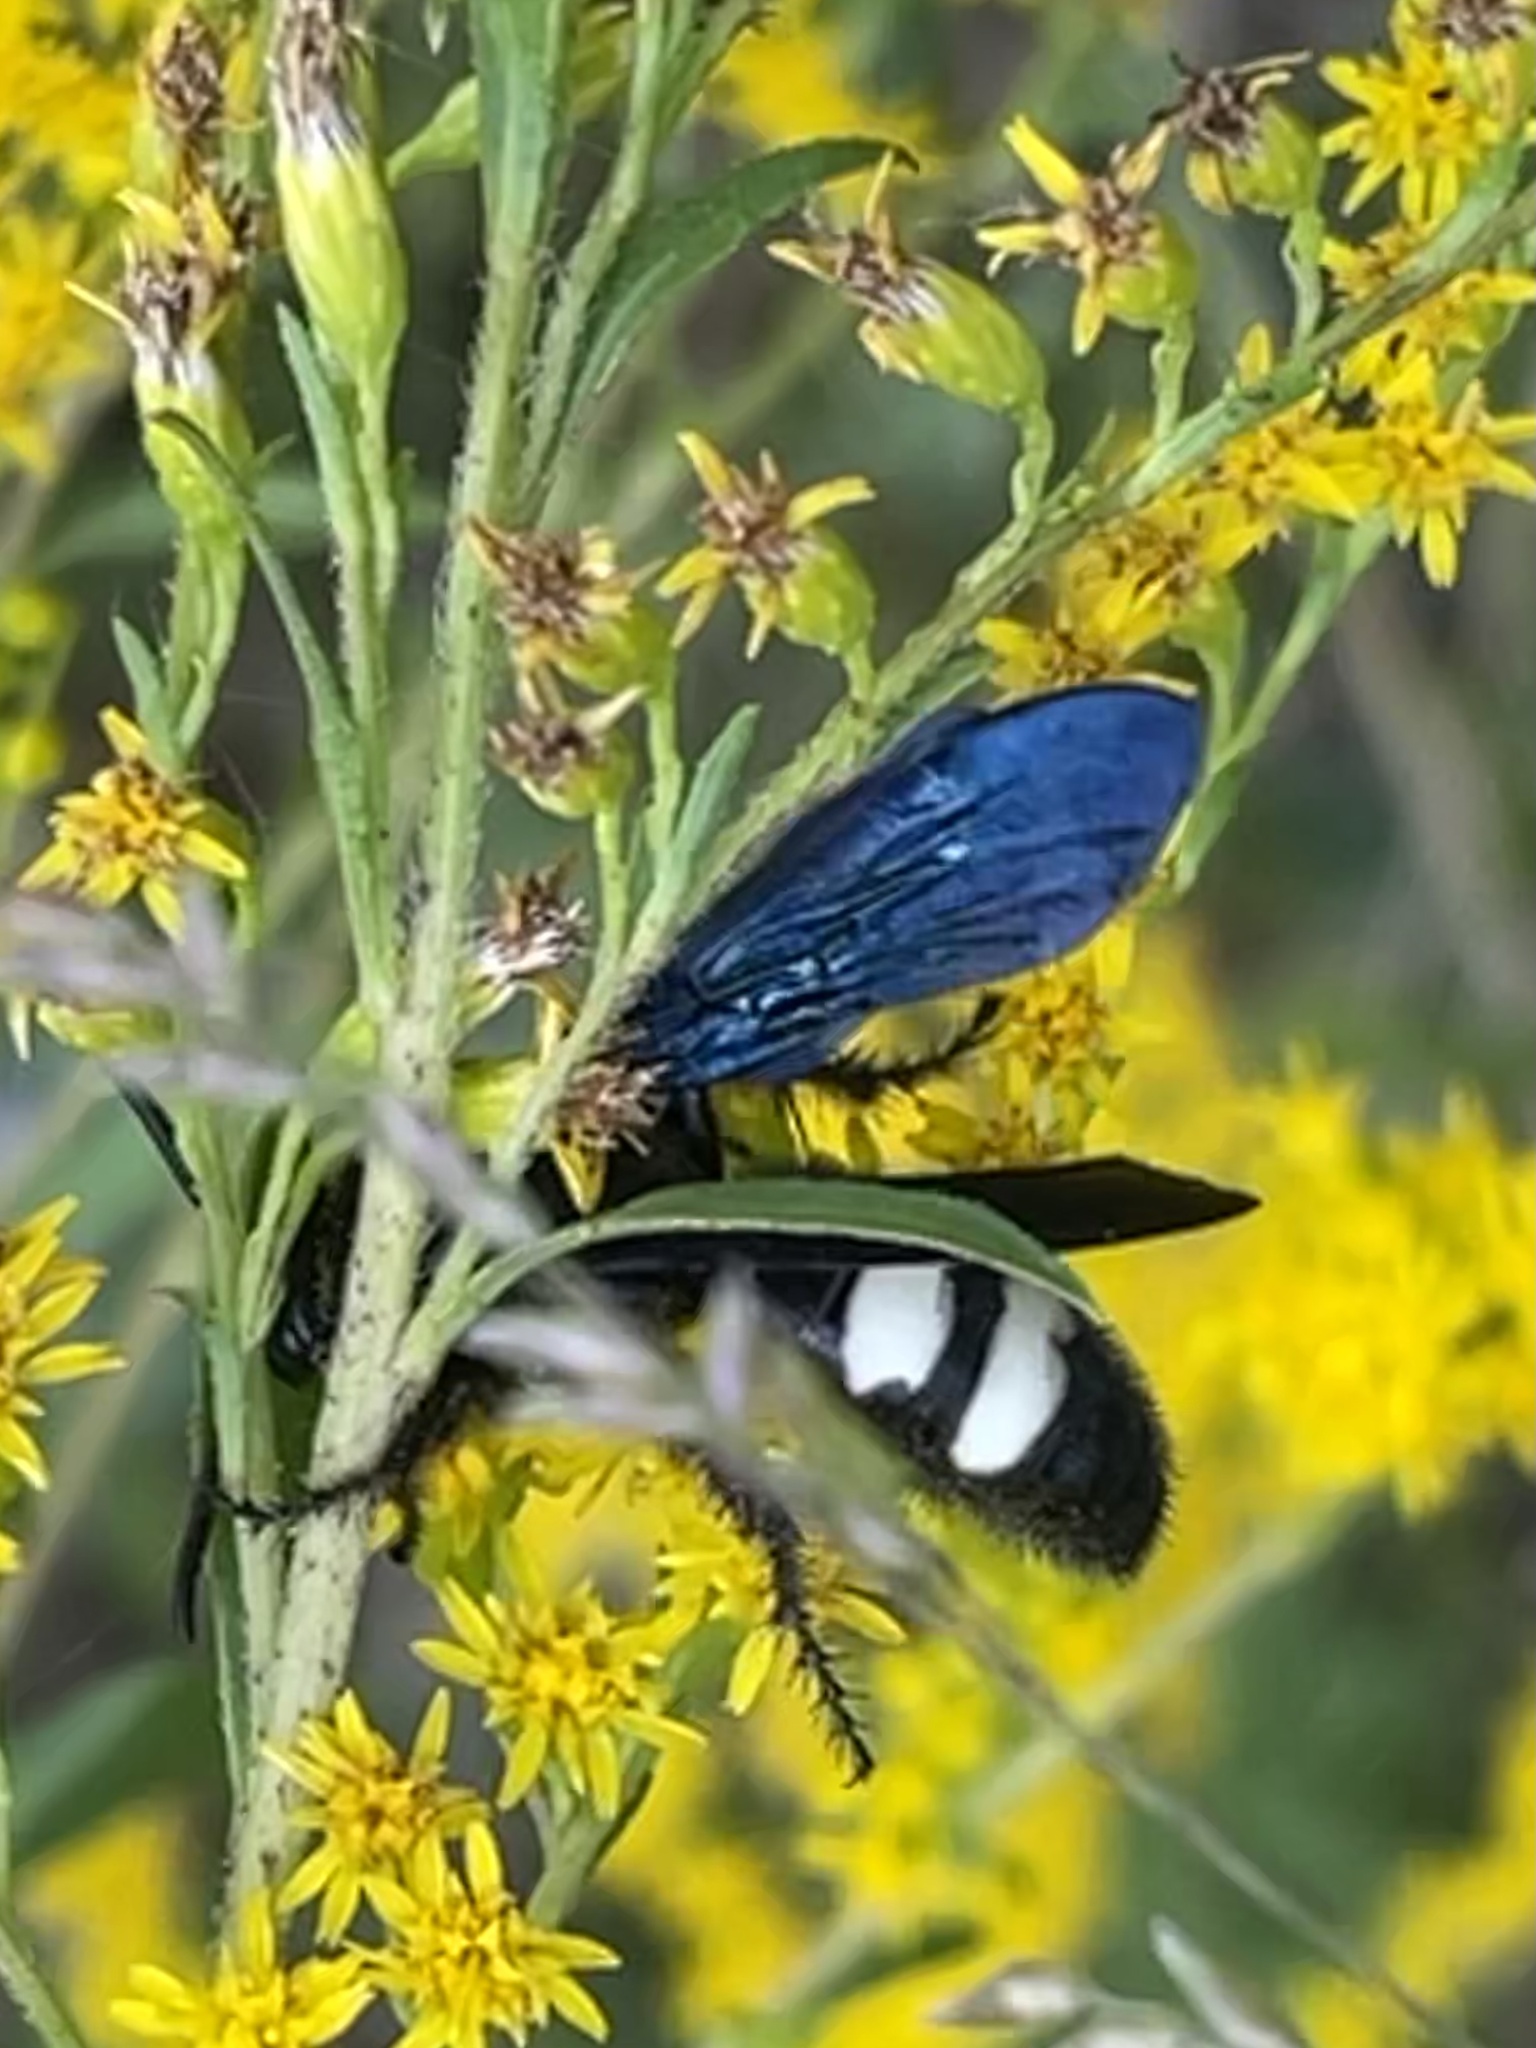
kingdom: Animalia
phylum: Arthropoda
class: Insecta
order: Hymenoptera
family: Scoliidae
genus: Scolia
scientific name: Scolia bicincta
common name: Double-banded scoliid wasp
